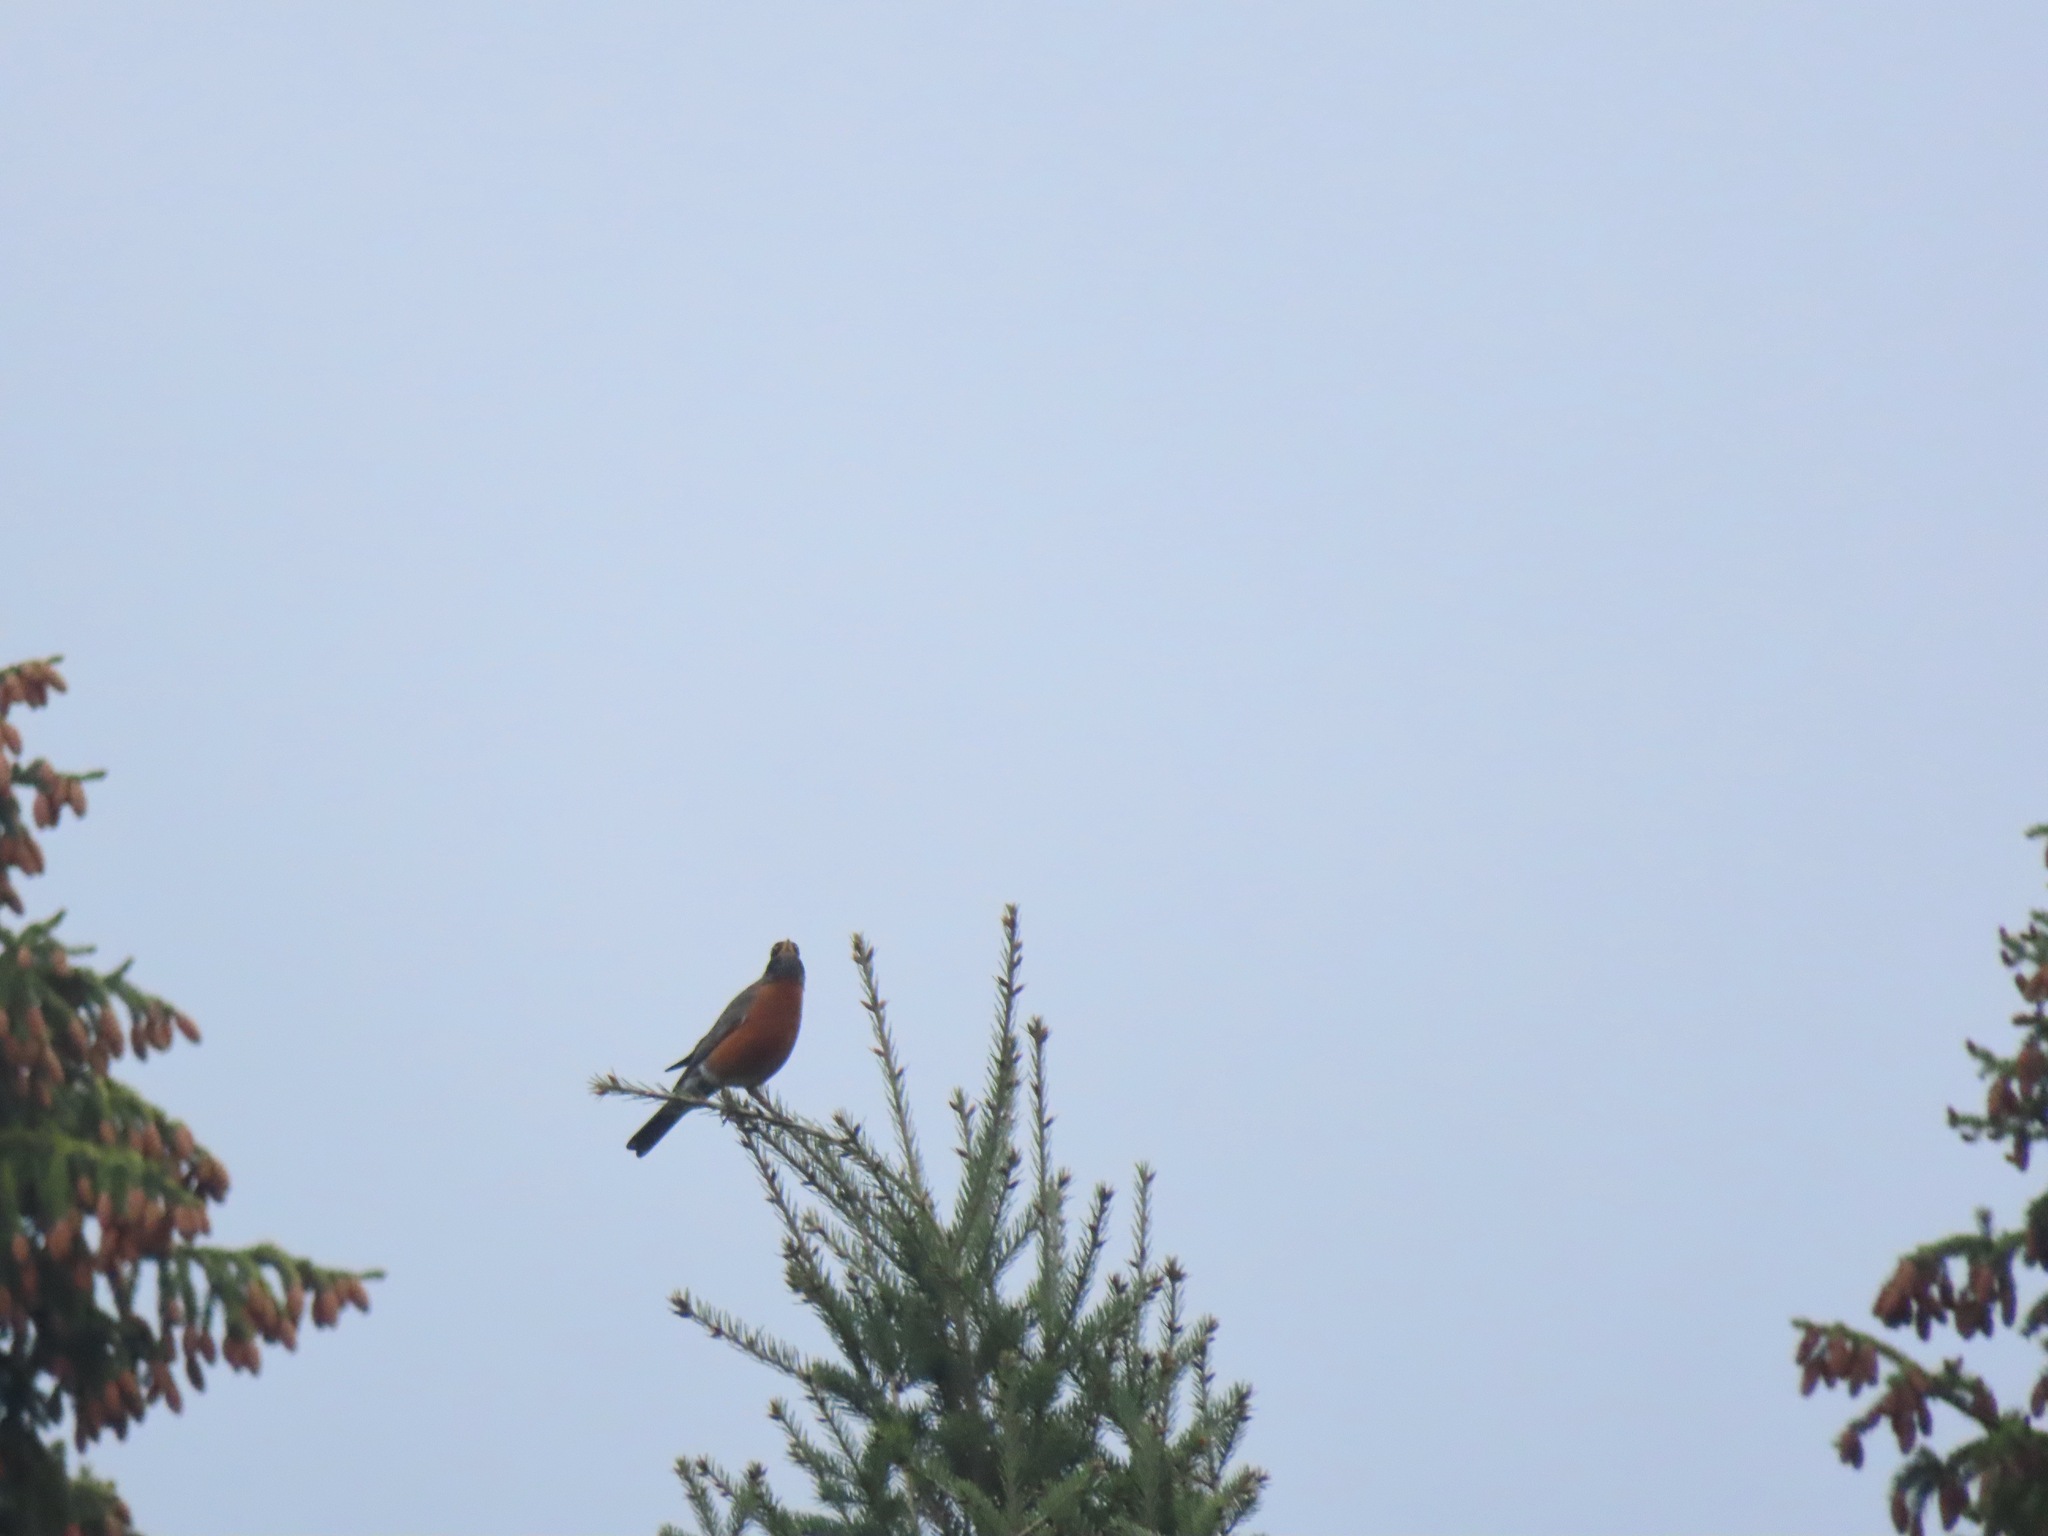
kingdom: Animalia
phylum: Chordata
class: Aves
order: Passeriformes
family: Turdidae
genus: Turdus
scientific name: Turdus migratorius
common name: American robin
